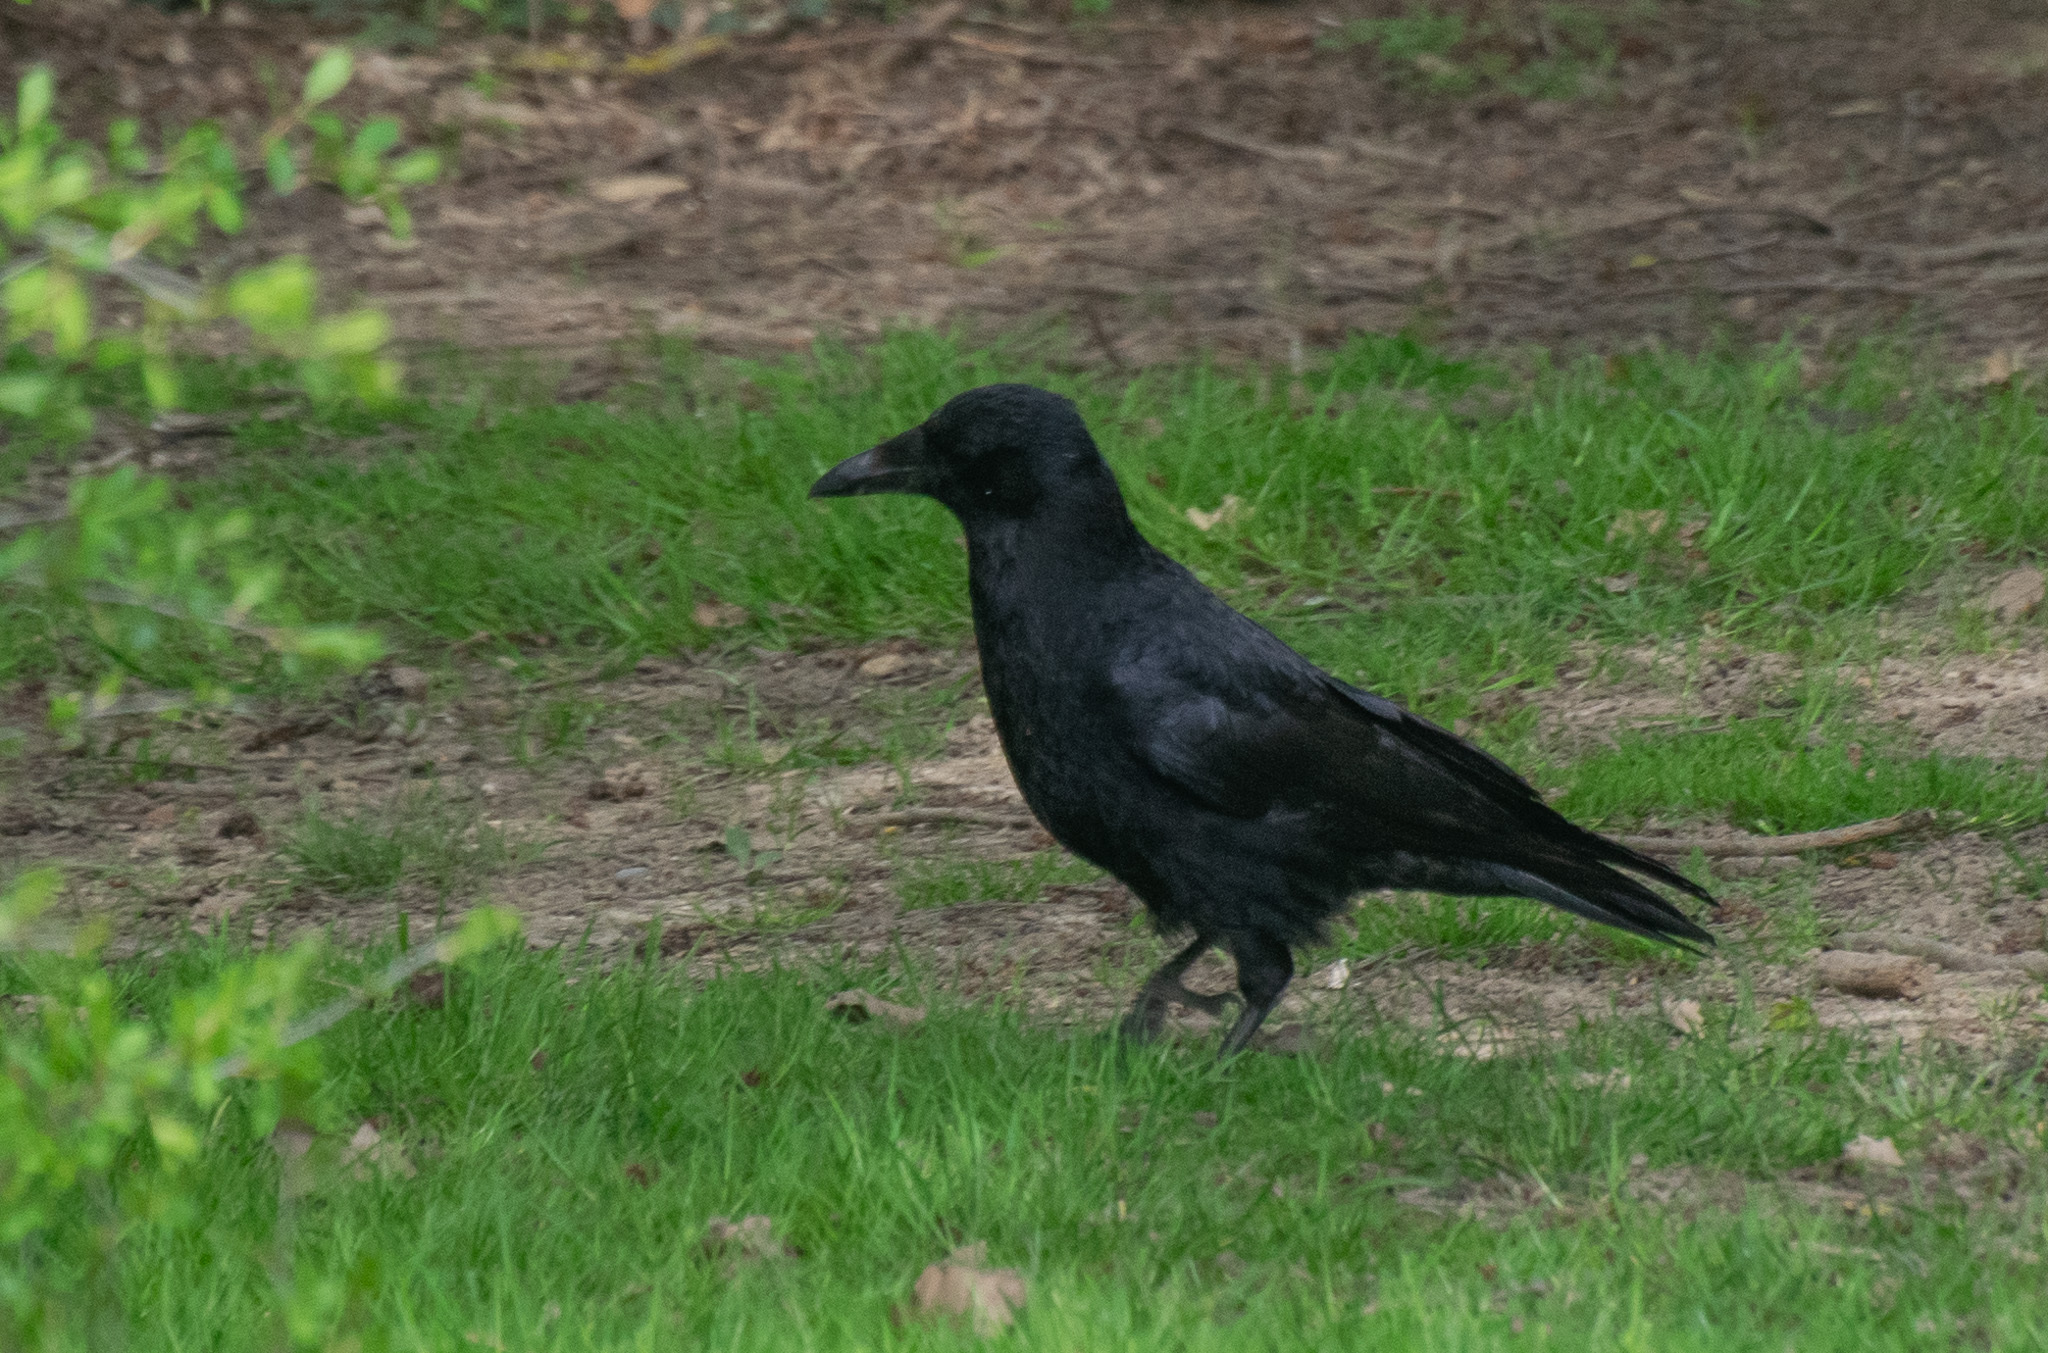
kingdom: Animalia
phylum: Chordata
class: Aves
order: Passeriformes
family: Corvidae
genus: Corvus
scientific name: Corvus corone
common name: Carrion crow
